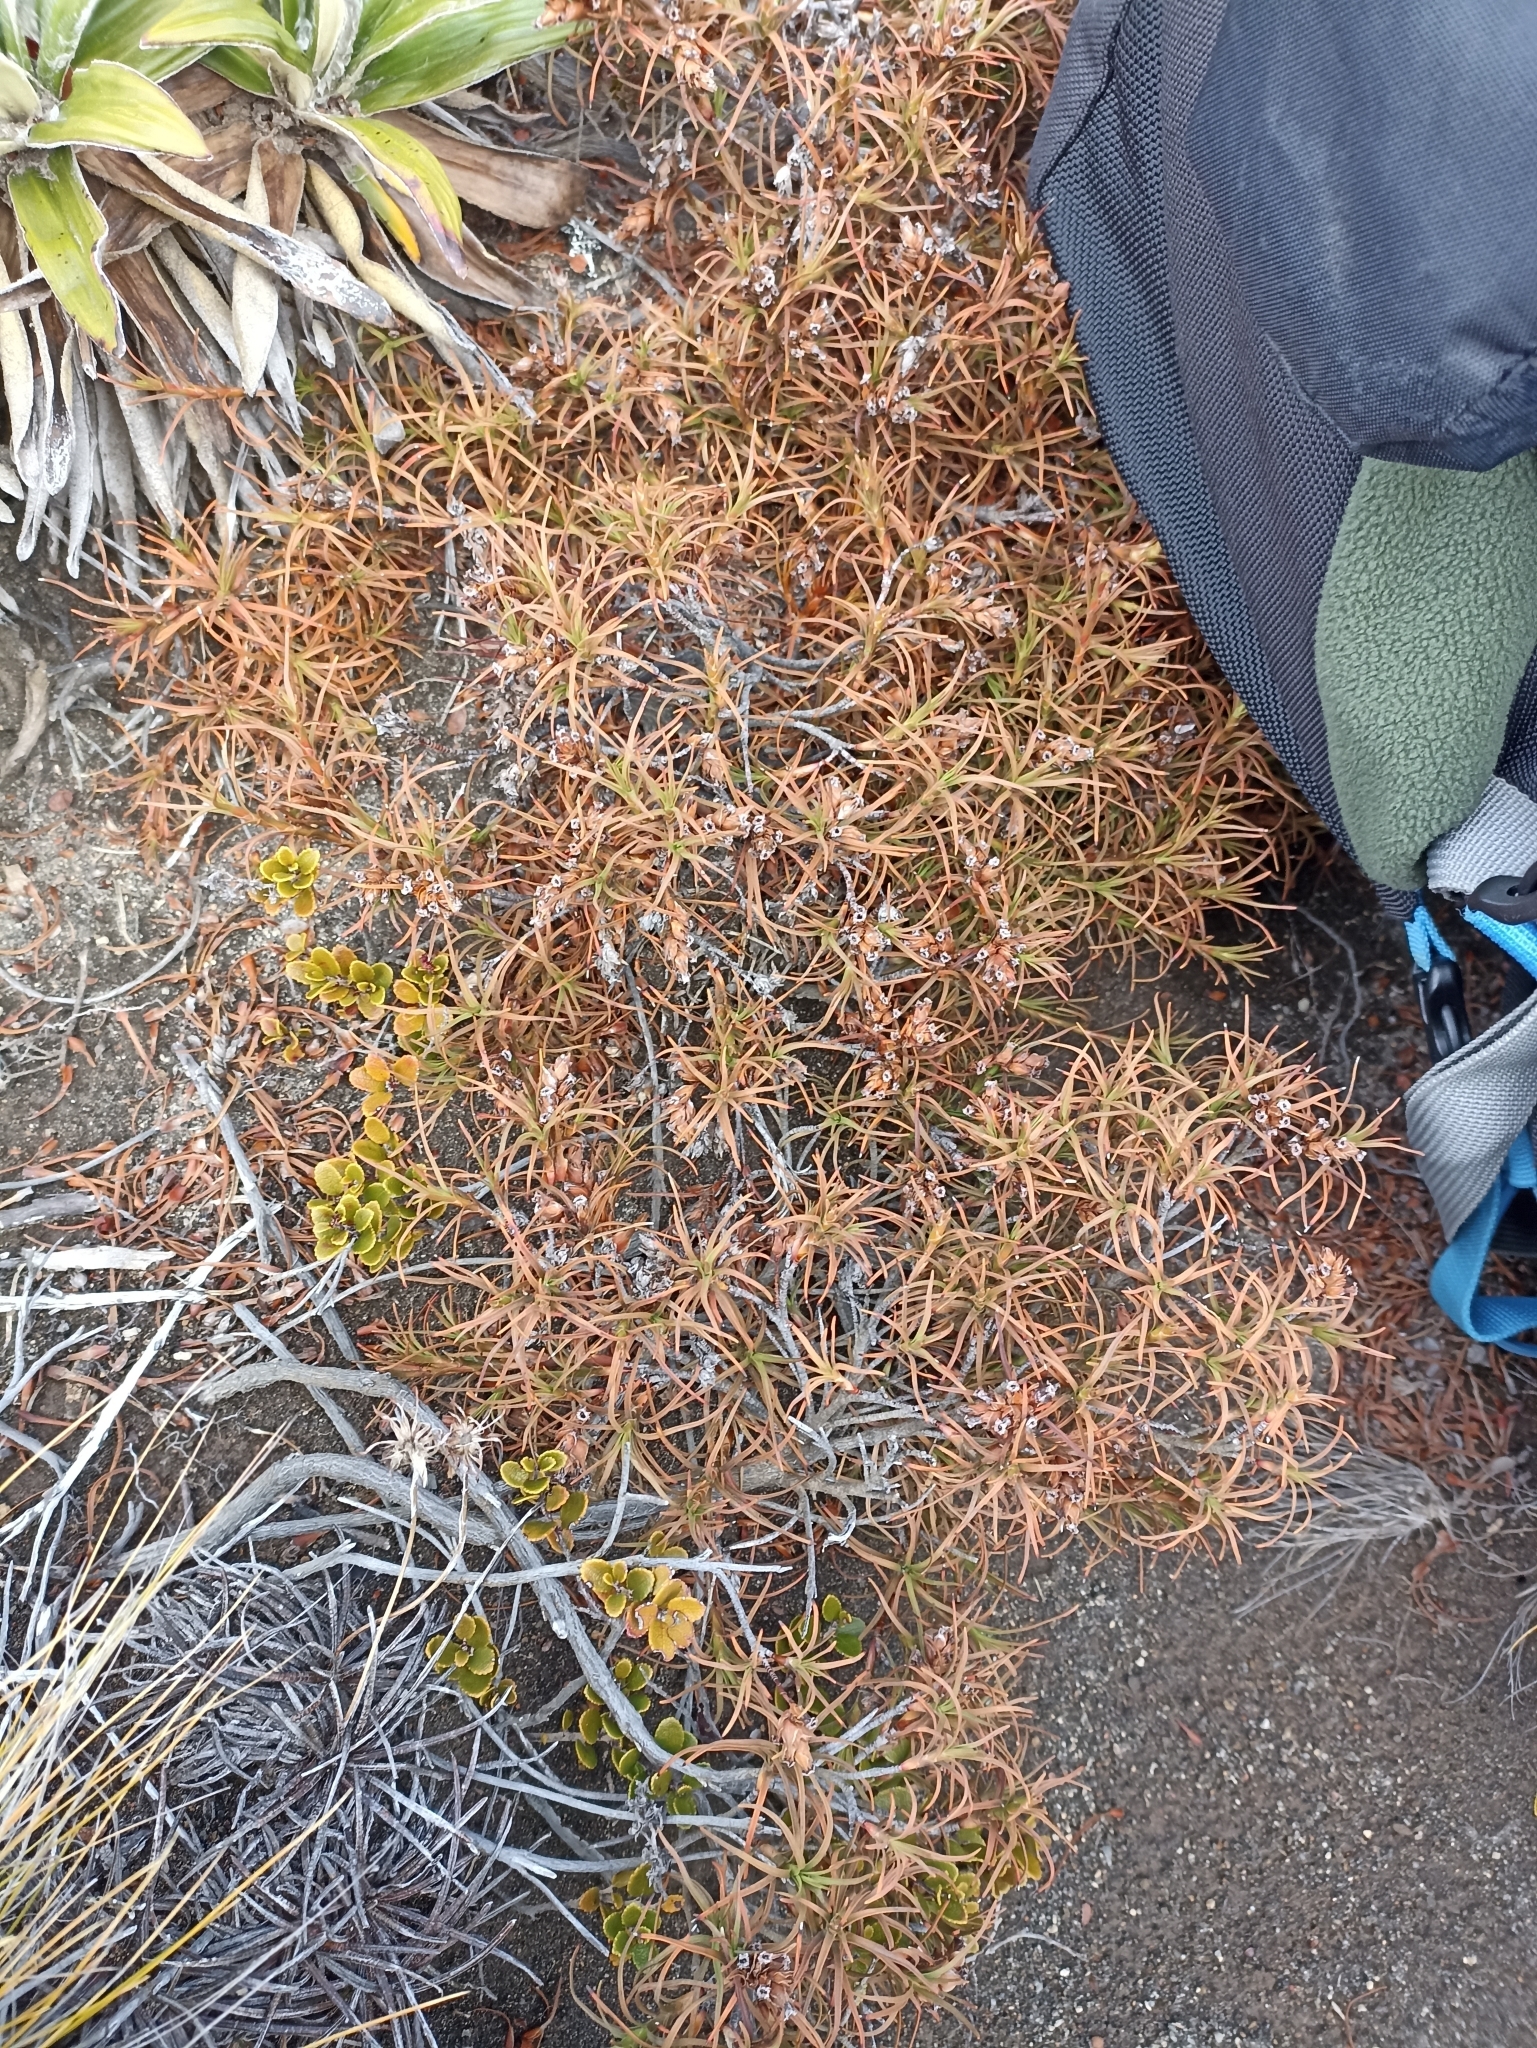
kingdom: Plantae
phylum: Tracheophyta
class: Magnoliopsida
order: Ericales
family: Ericaceae
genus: Dracophyllum
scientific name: Dracophyllum recurvum
